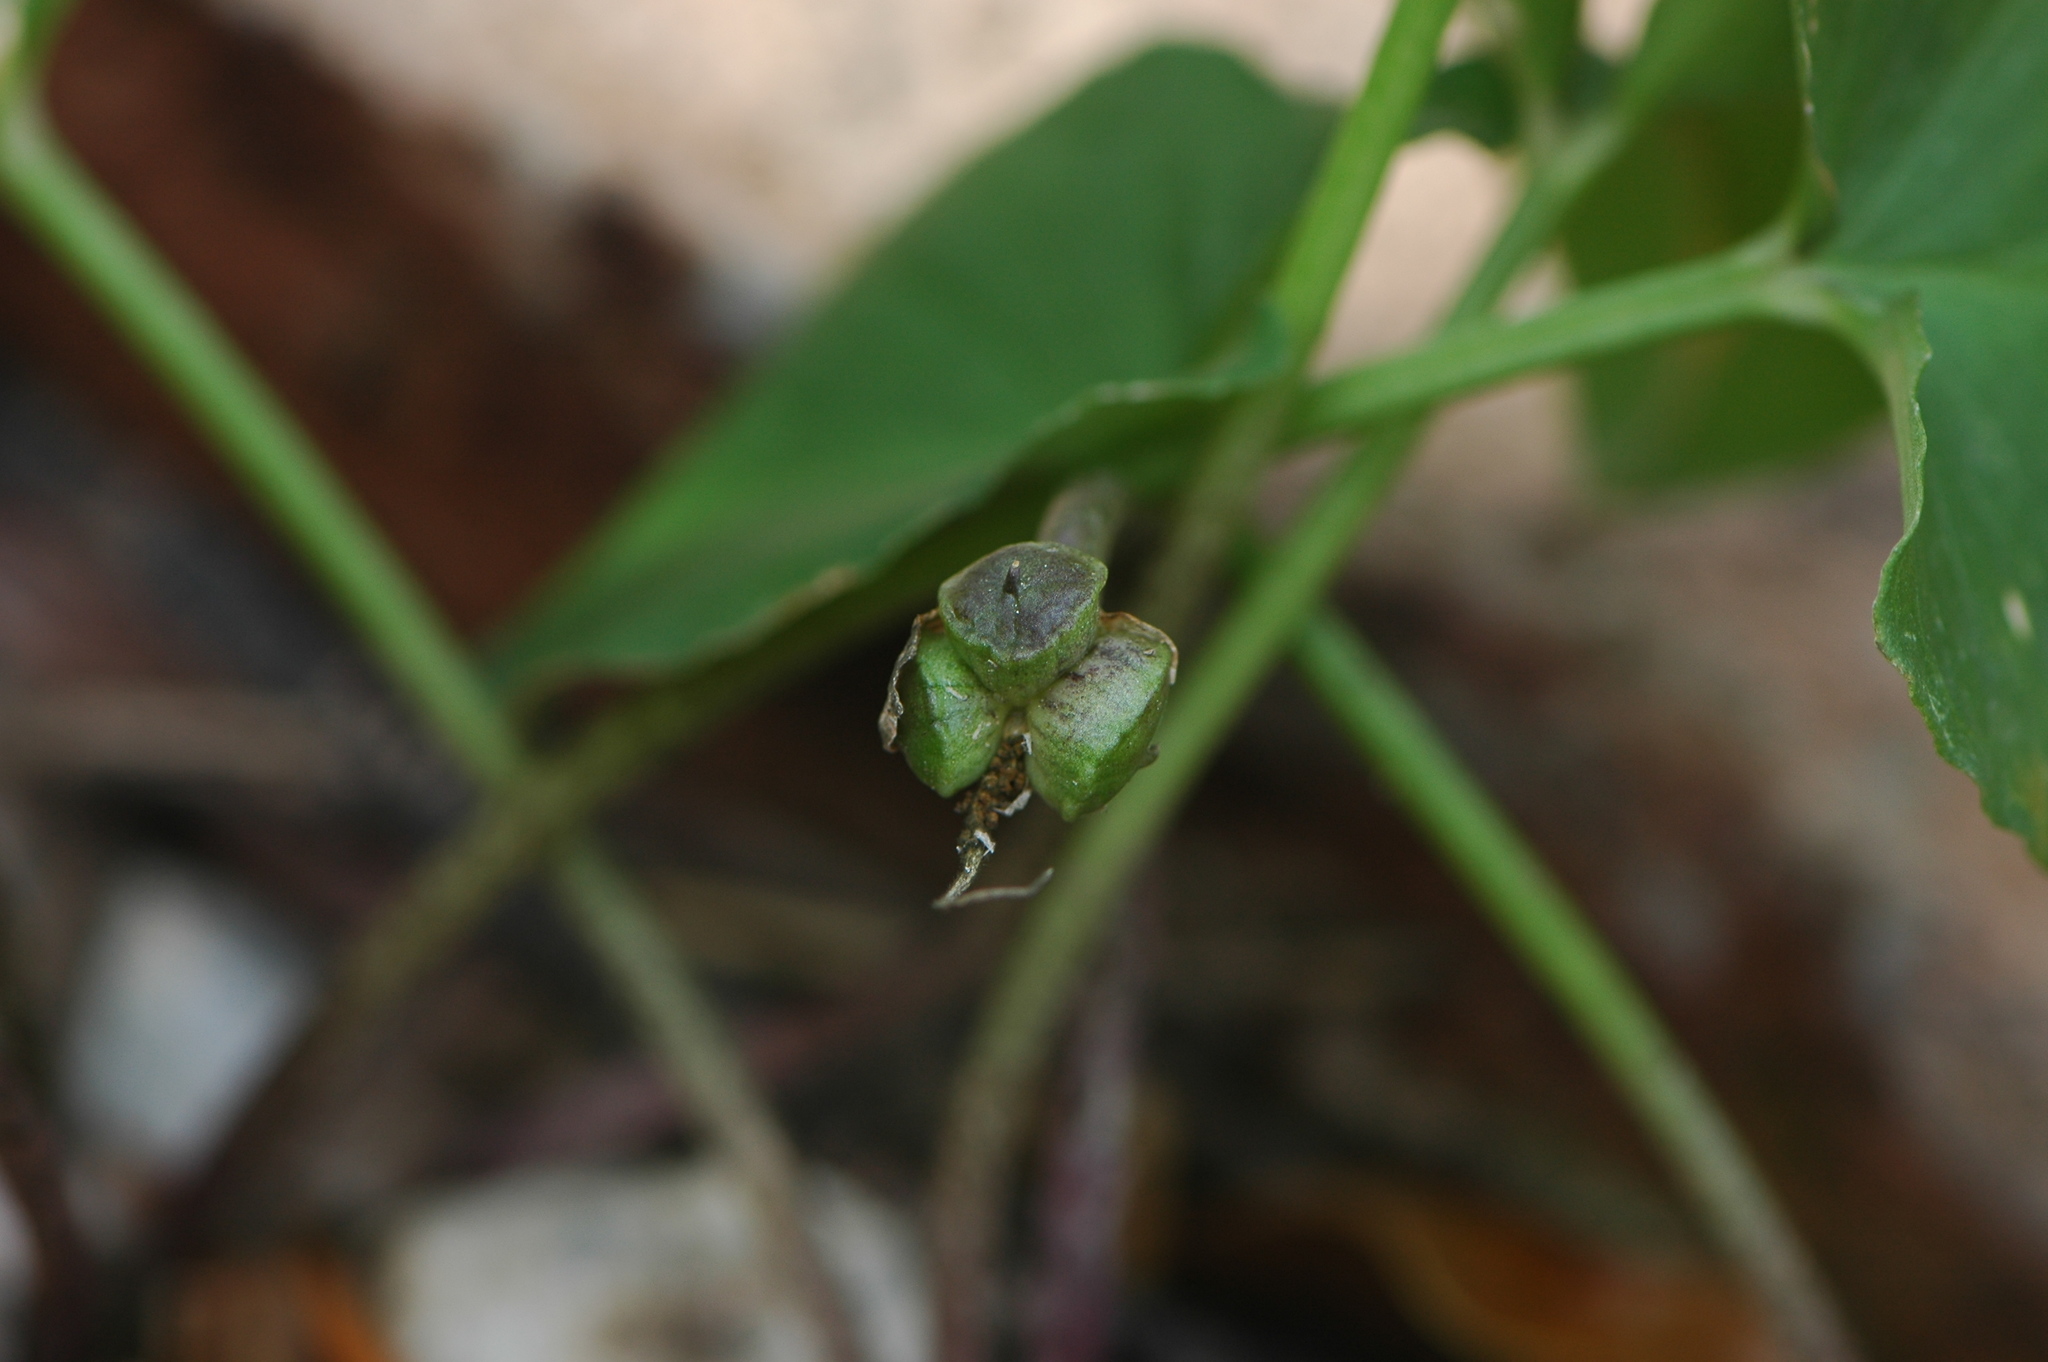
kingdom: Plantae
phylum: Tracheophyta
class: Liliopsida
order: Alismatales
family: Araceae
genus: Arisarum
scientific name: Arisarum vulgare
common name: Common arisarum
